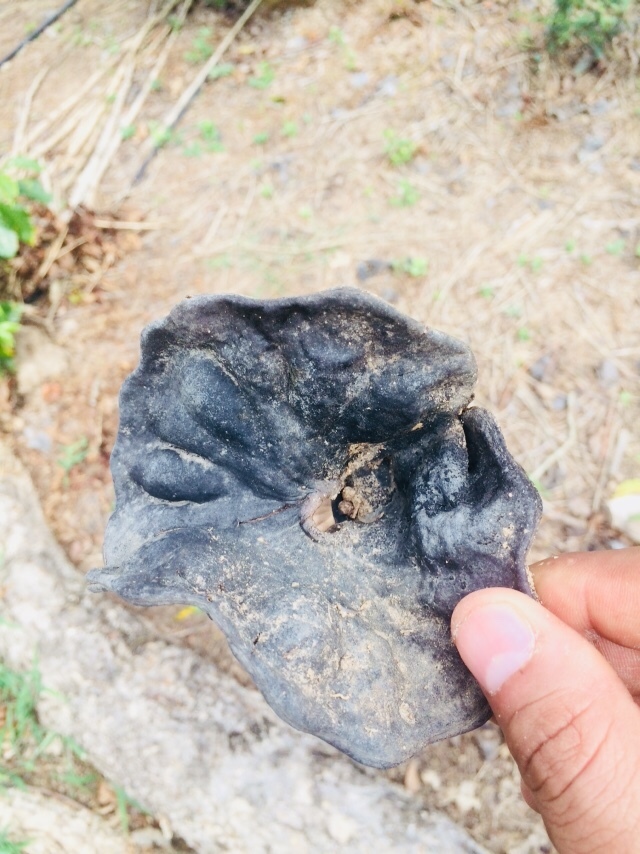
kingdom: Plantae
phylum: Tracheophyta
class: Magnoliopsida
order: Fabales
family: Fabaceae
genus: Enterolobium
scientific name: Enterolobium cyclocarpum
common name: Ear tree
